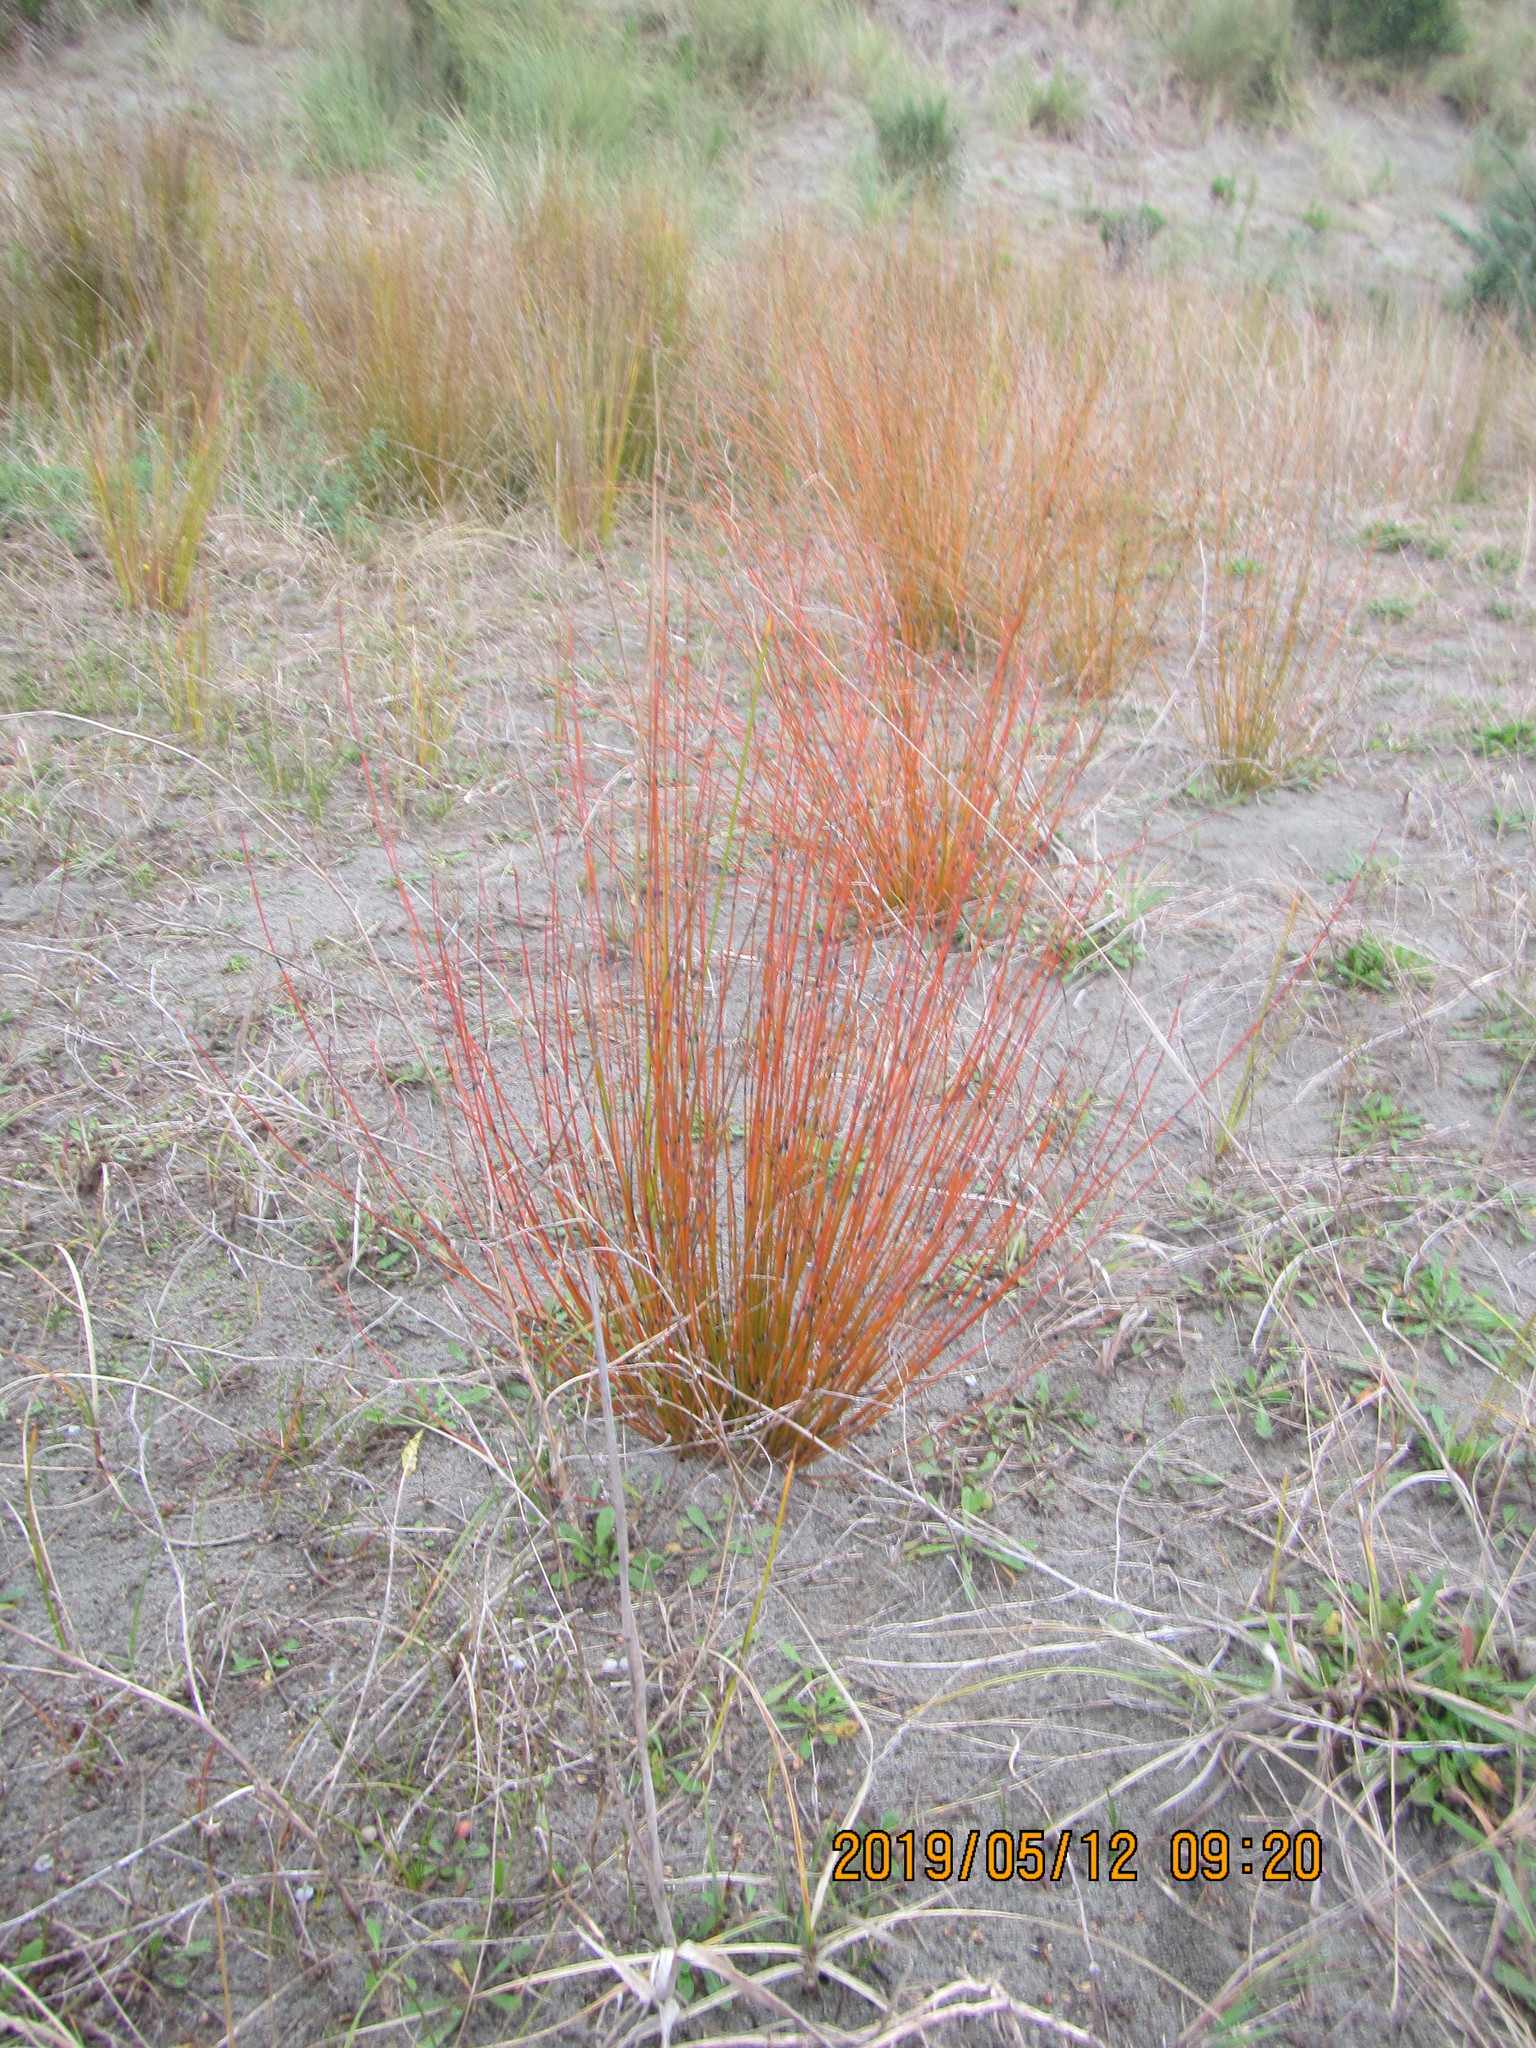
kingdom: Plantae
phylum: Tracheophyta
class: Liliopsida
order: Poales
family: Restionaceae
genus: Apodasmia
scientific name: Apodasmia similis
